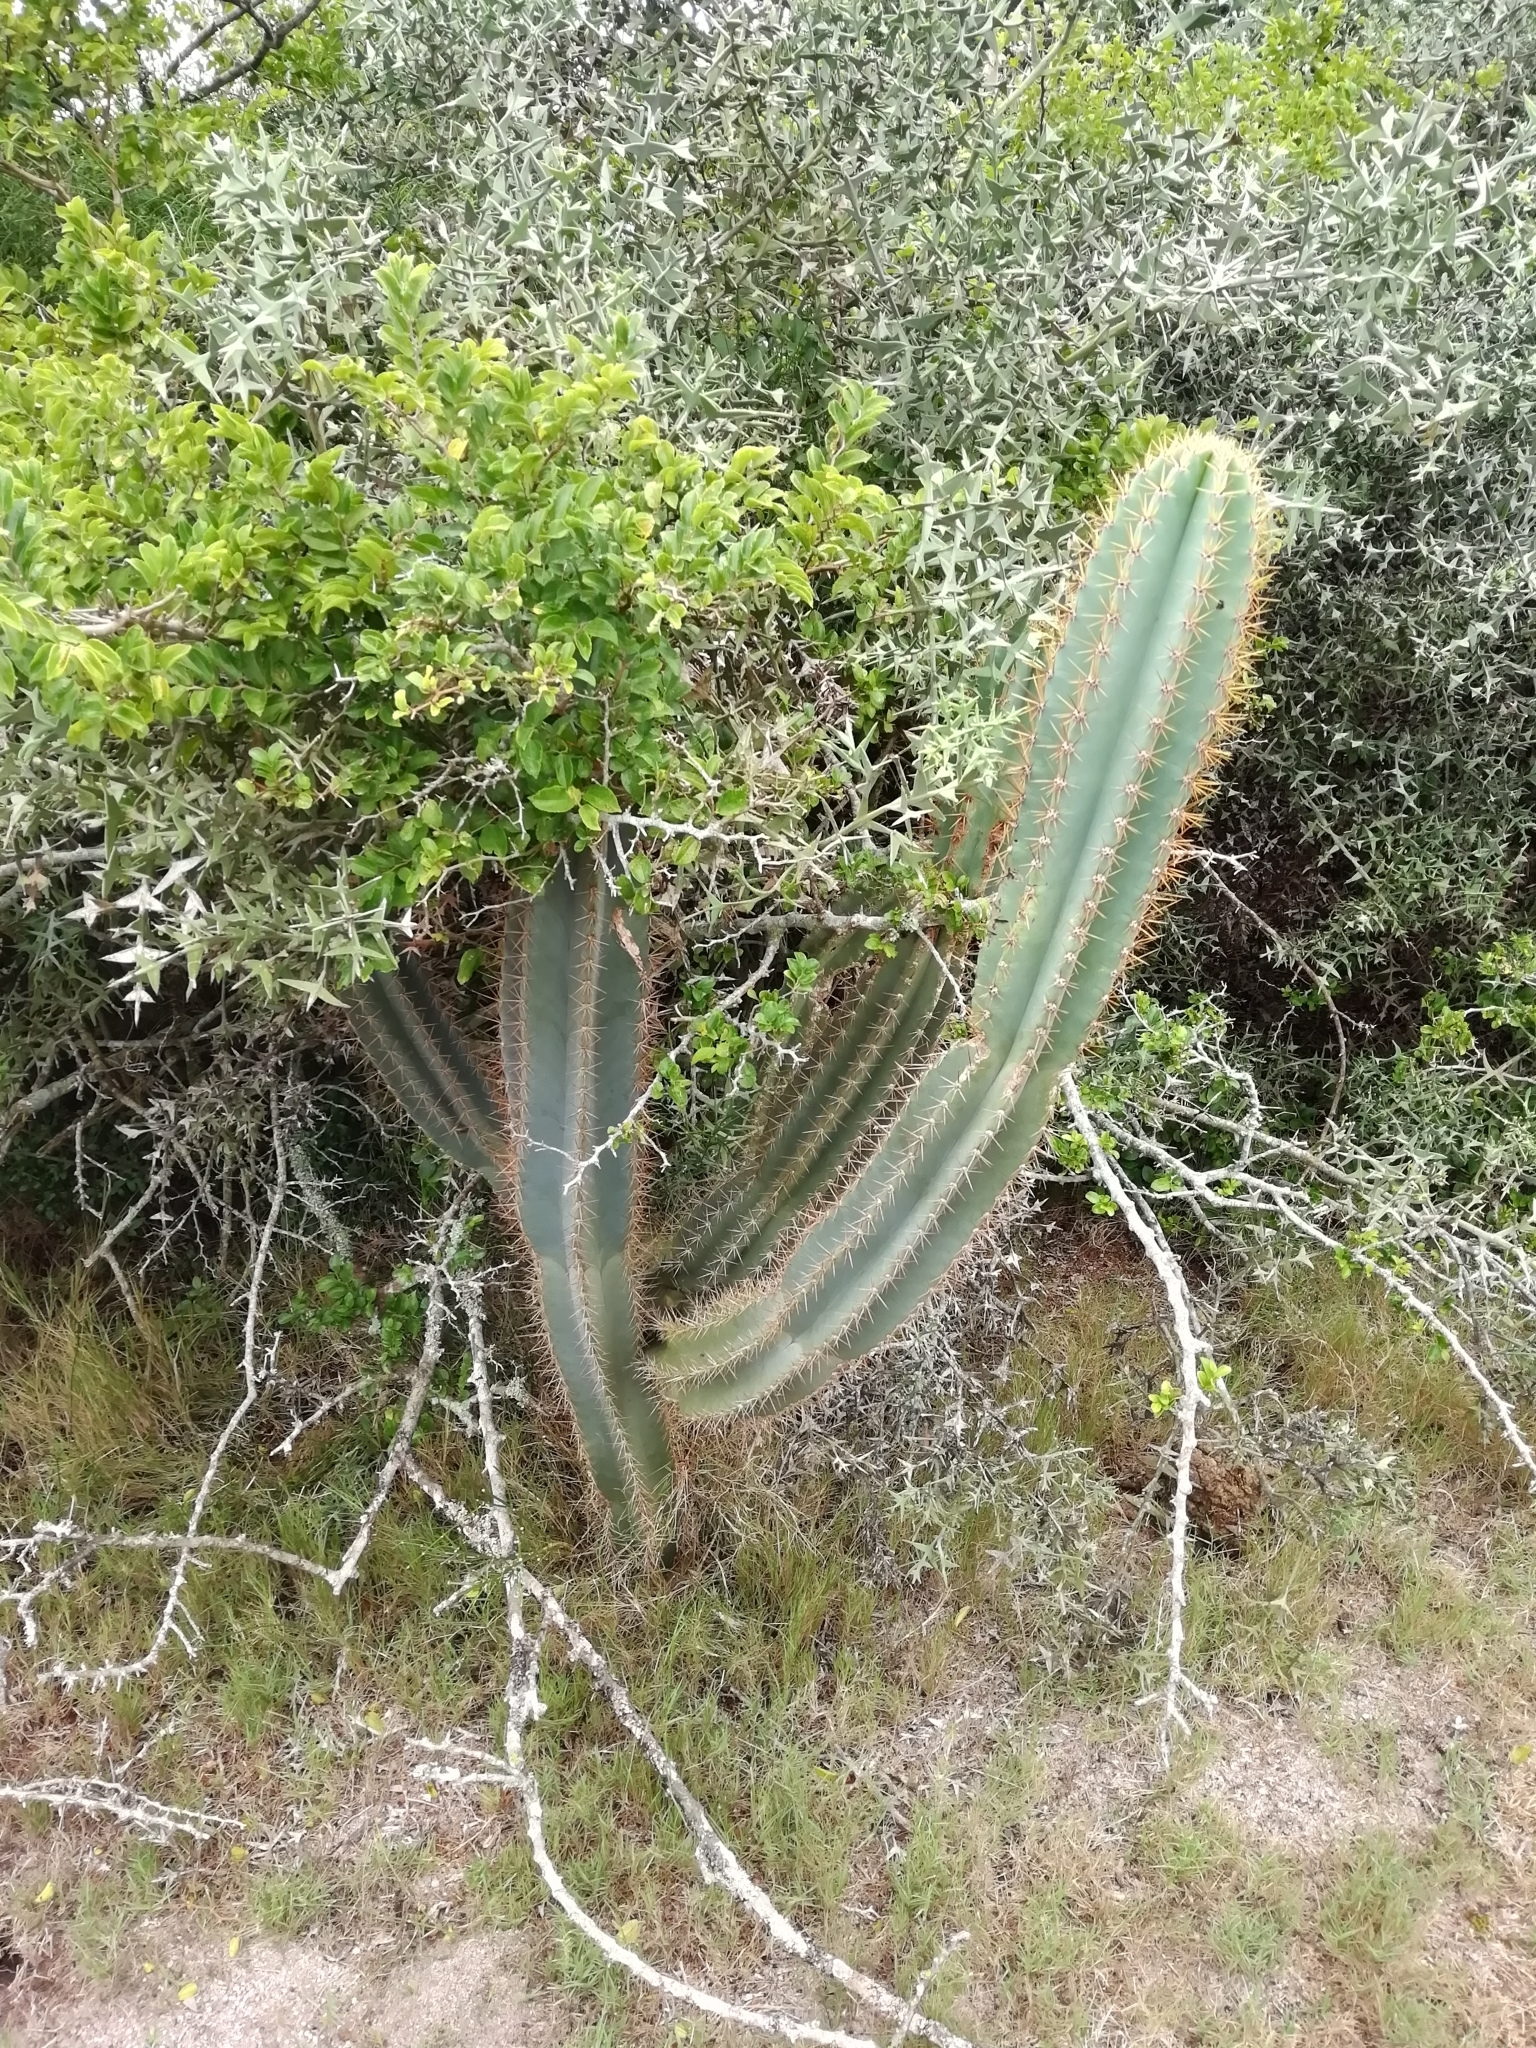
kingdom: Plantae
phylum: Tracheophyta
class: Magnoliopsida
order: Caryophyllales
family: Cactaceae
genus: Cereus
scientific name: Cereus hildmannianus
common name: Hedge cactus
